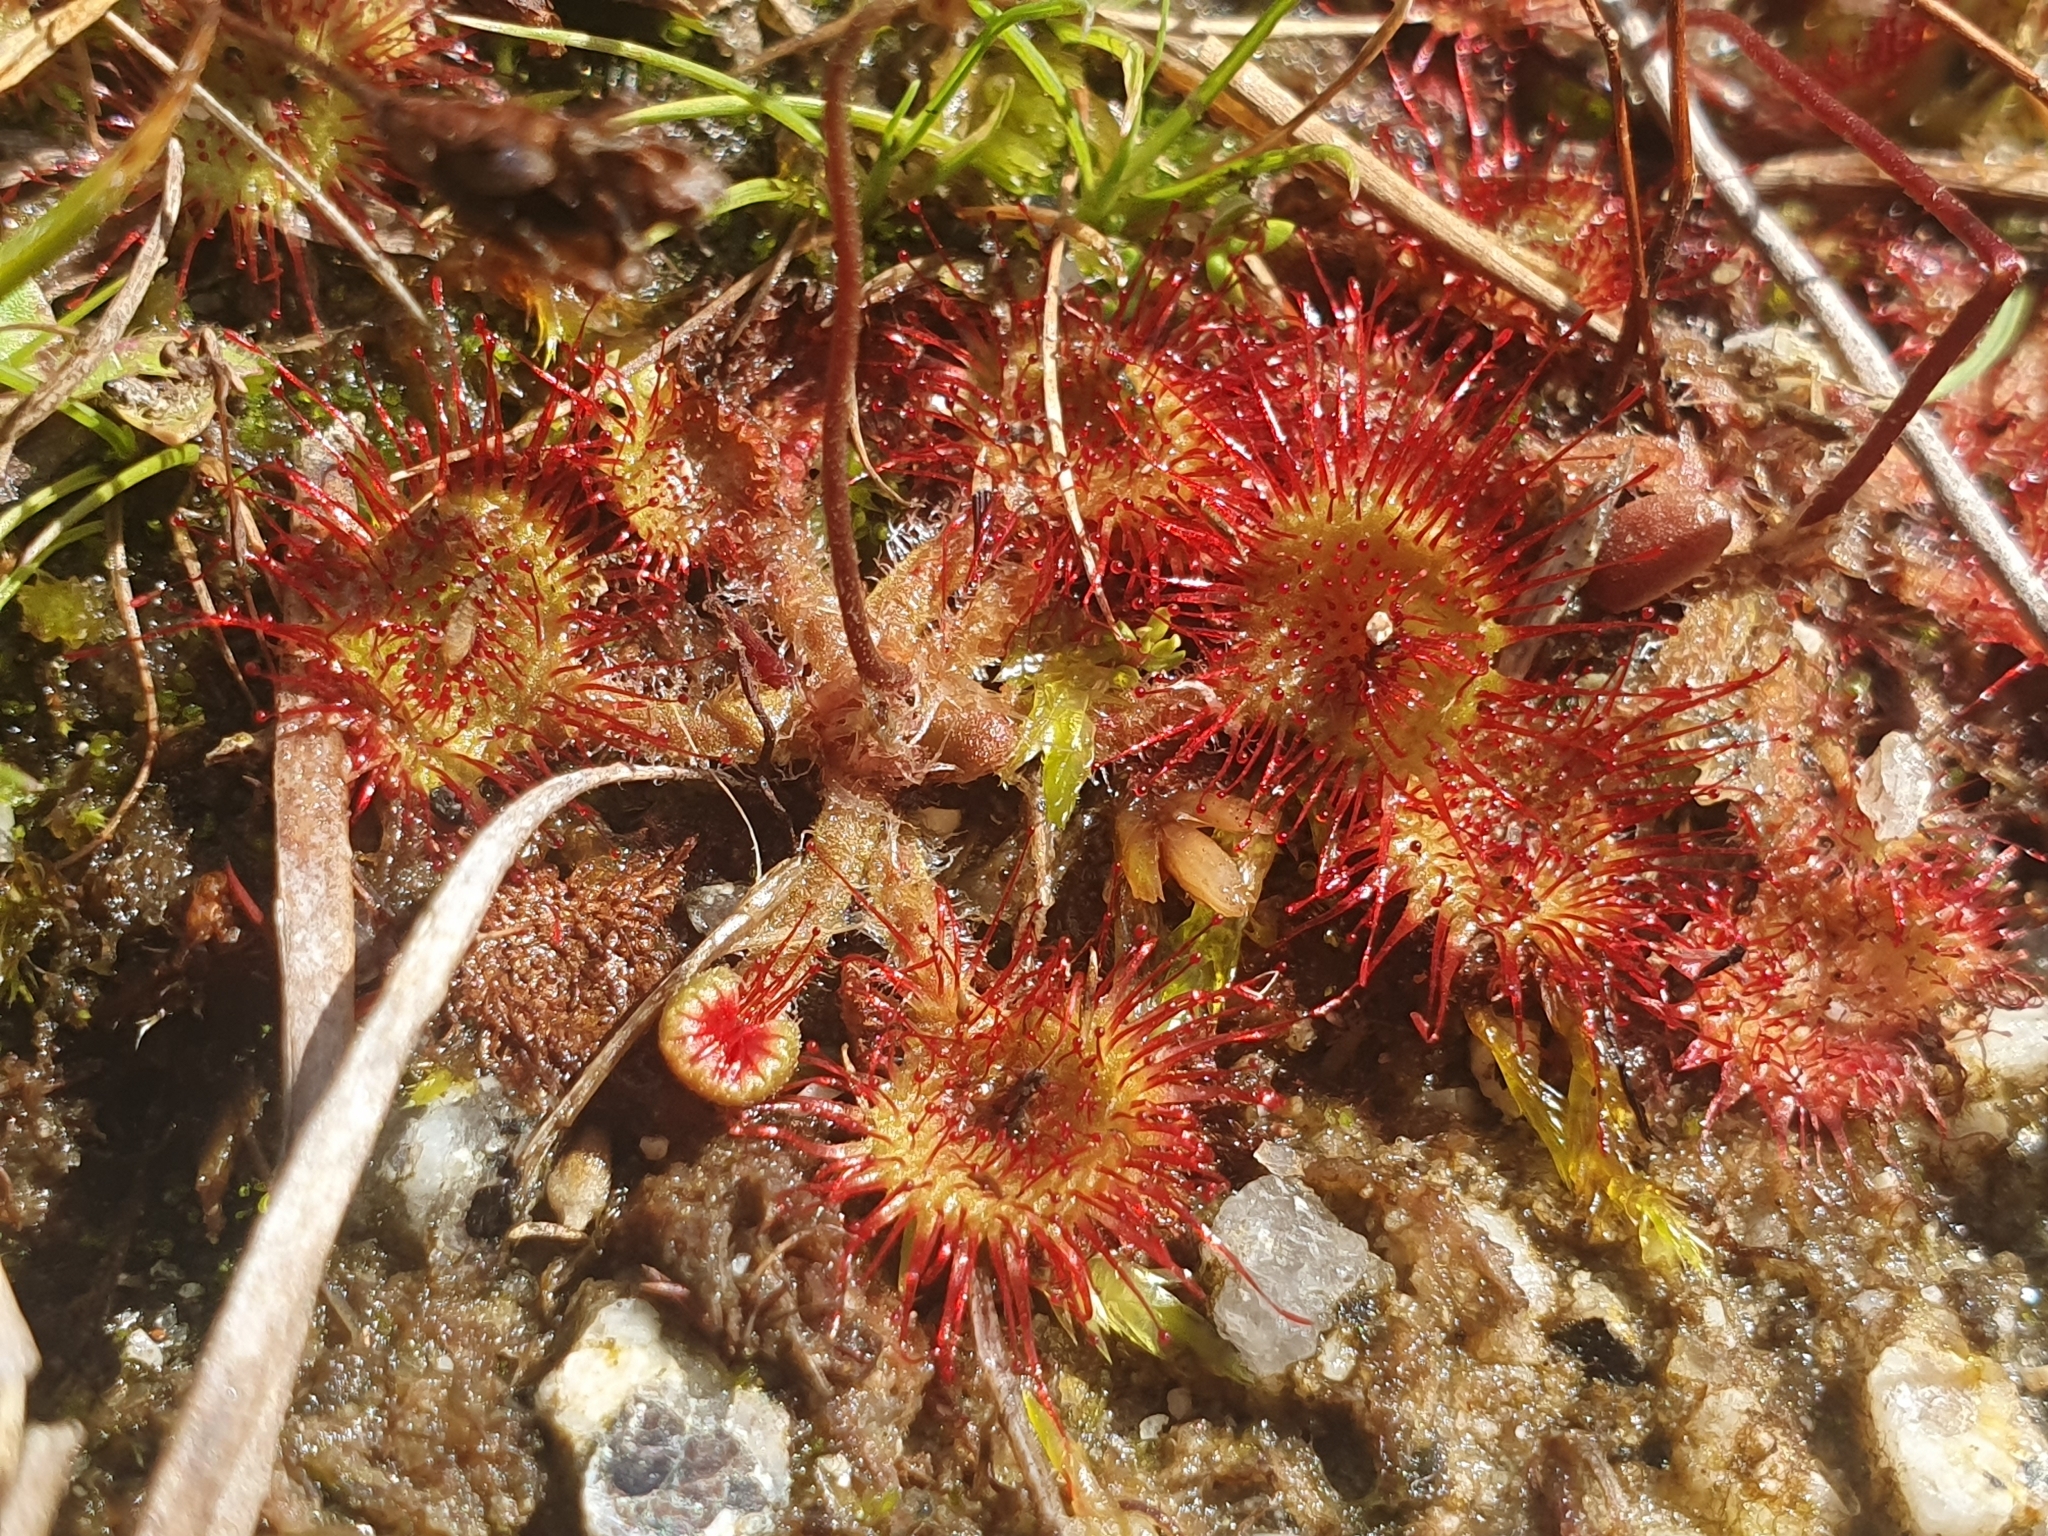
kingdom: Plantae
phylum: Tracheophyta
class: Magnoliopsida
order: Caryophyllales
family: Droseraceae
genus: Drosera
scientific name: Drosera rotundifolia
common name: Round-leaved sundew
